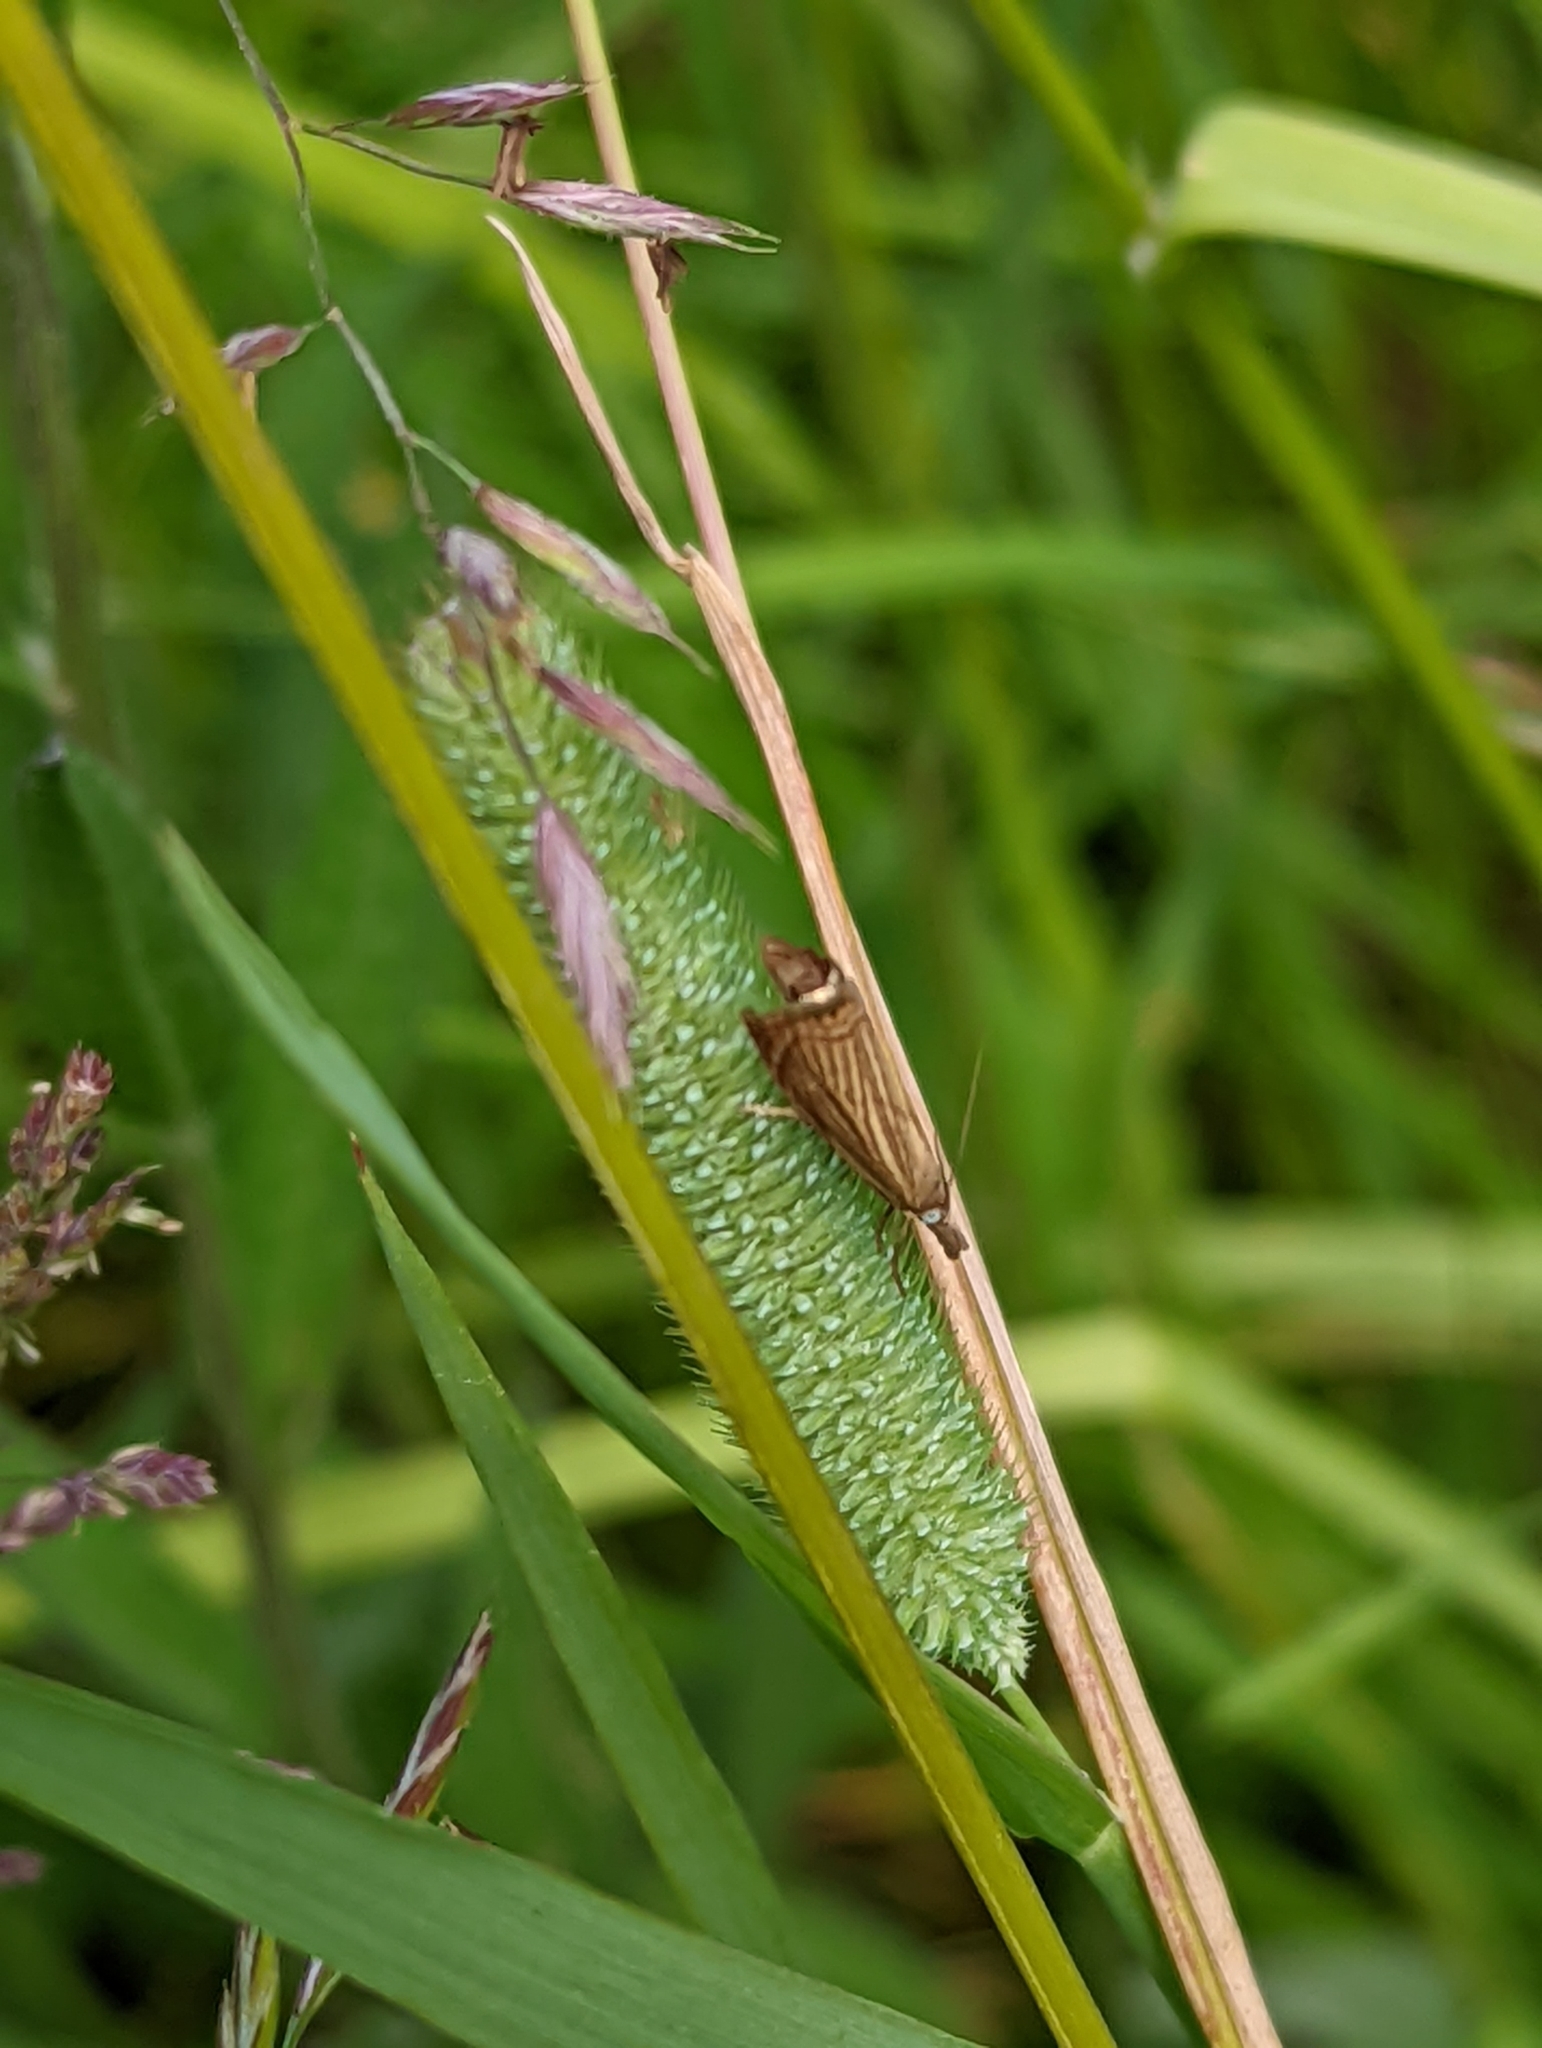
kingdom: Animalia
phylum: Arthropoda
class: Insecta
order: Lepidoptera
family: Crambidae
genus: Chrysoteuchia
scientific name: Chrysoteuchia culmella
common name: Garden grass-veneer
